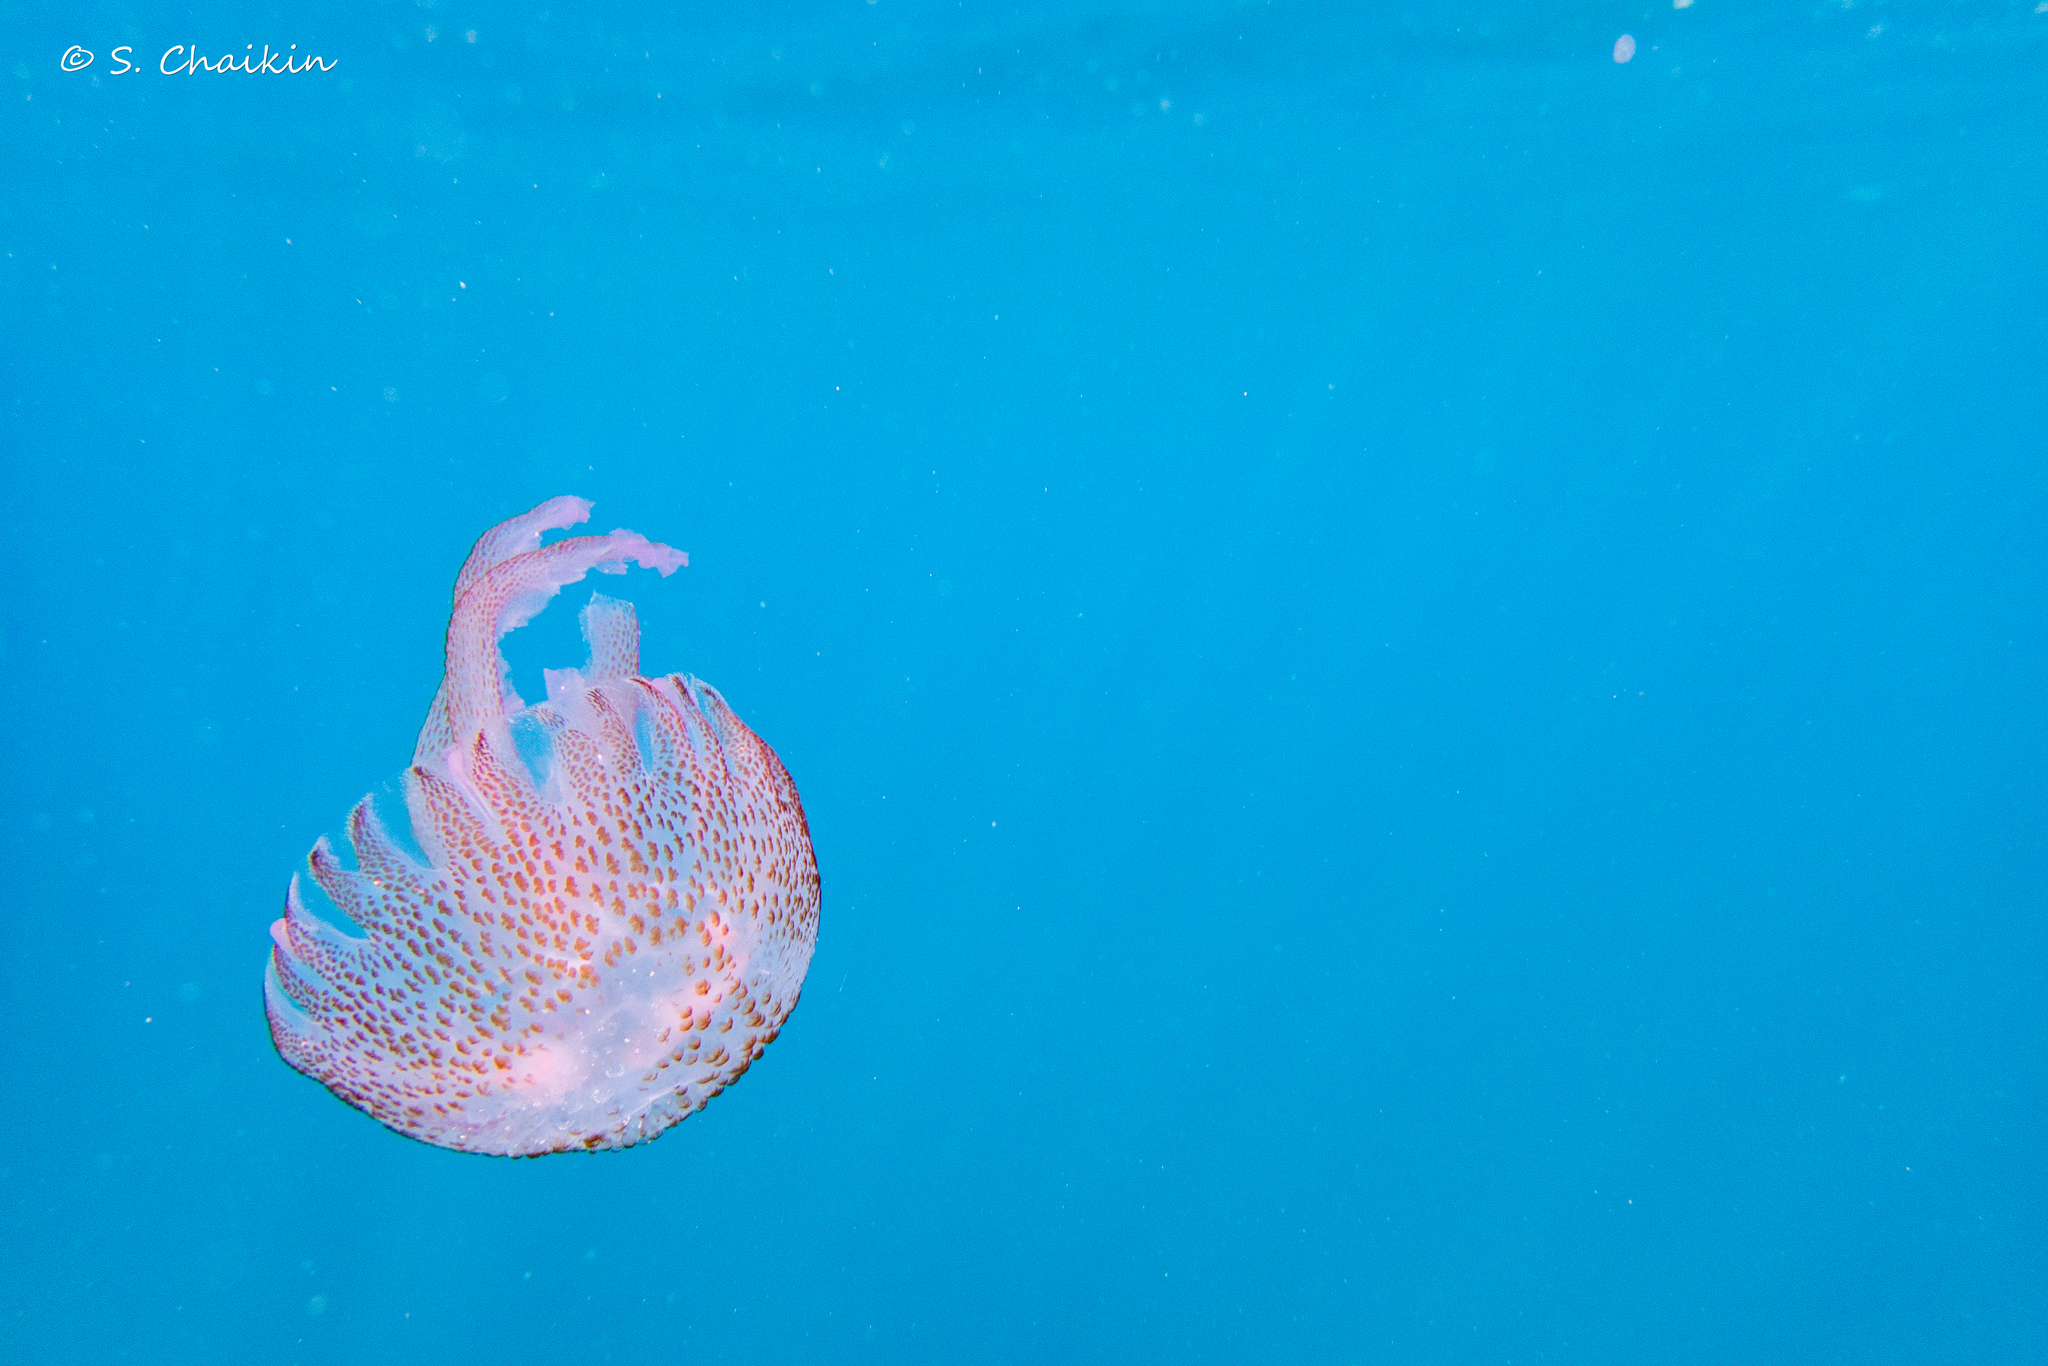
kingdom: Animalia
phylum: Cnidaria
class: Scyphozoa
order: Semaeostomeae
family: Pelagiidae
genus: Pelagia
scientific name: Pelagia noctiluca
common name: Mauve stinger
